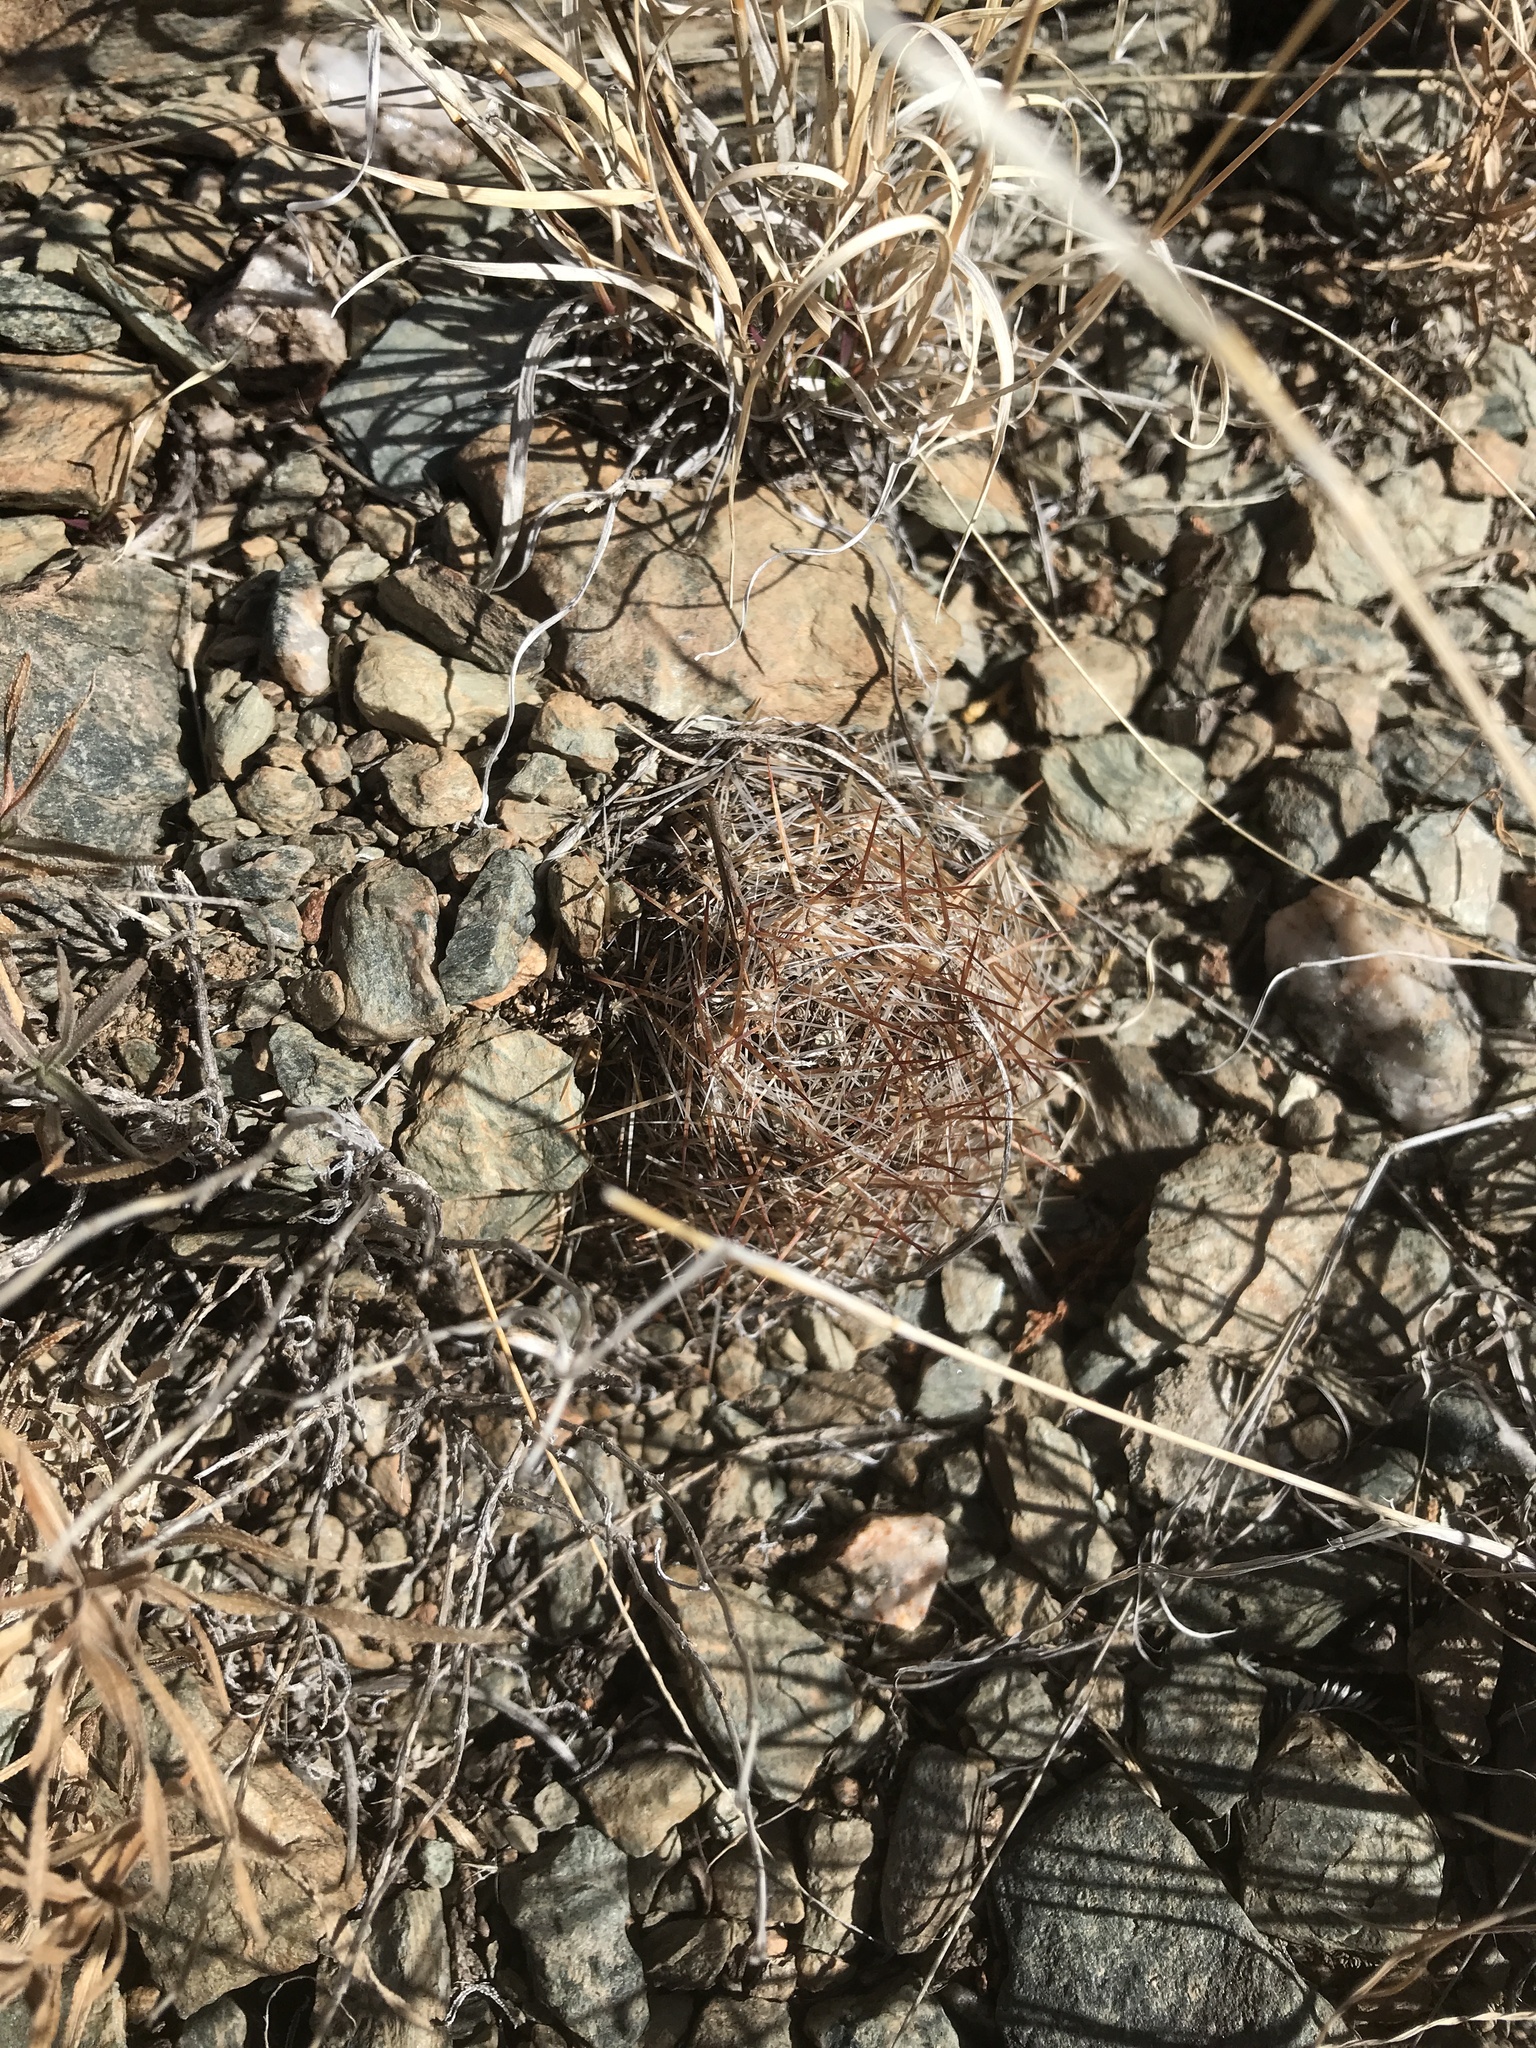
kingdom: Plantae
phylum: Tracheophyta
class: Magnoliopsida
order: Caryophyllales
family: Cactaceae
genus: Pelecyphora
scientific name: Pelecyphora vivipara
